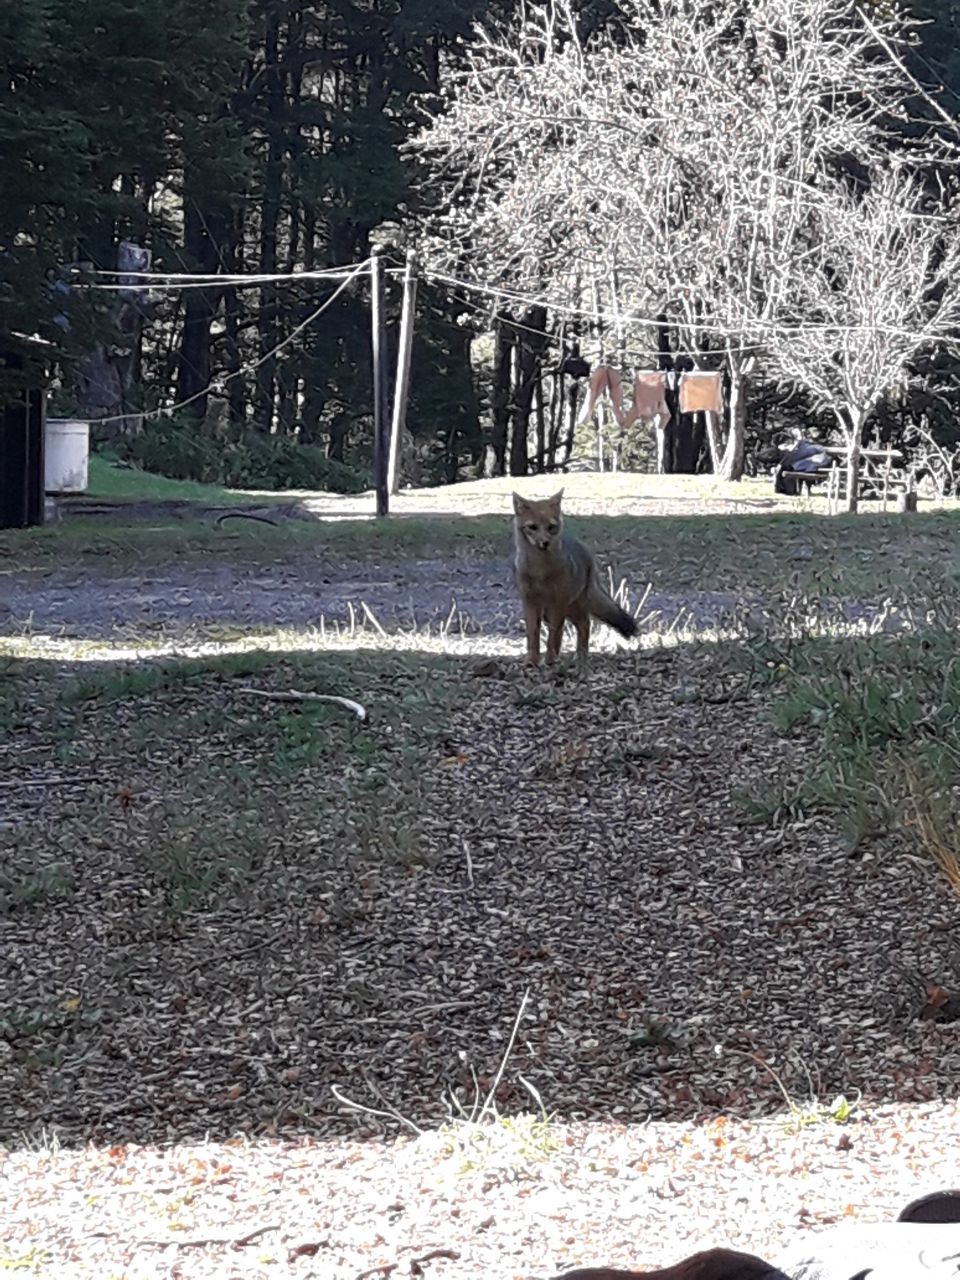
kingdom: Animalia
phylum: Chordata
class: Mammalia
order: Carnivora
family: Canidae
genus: Lycalopex
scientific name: Lycalopex culpaeus
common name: Culpeo
